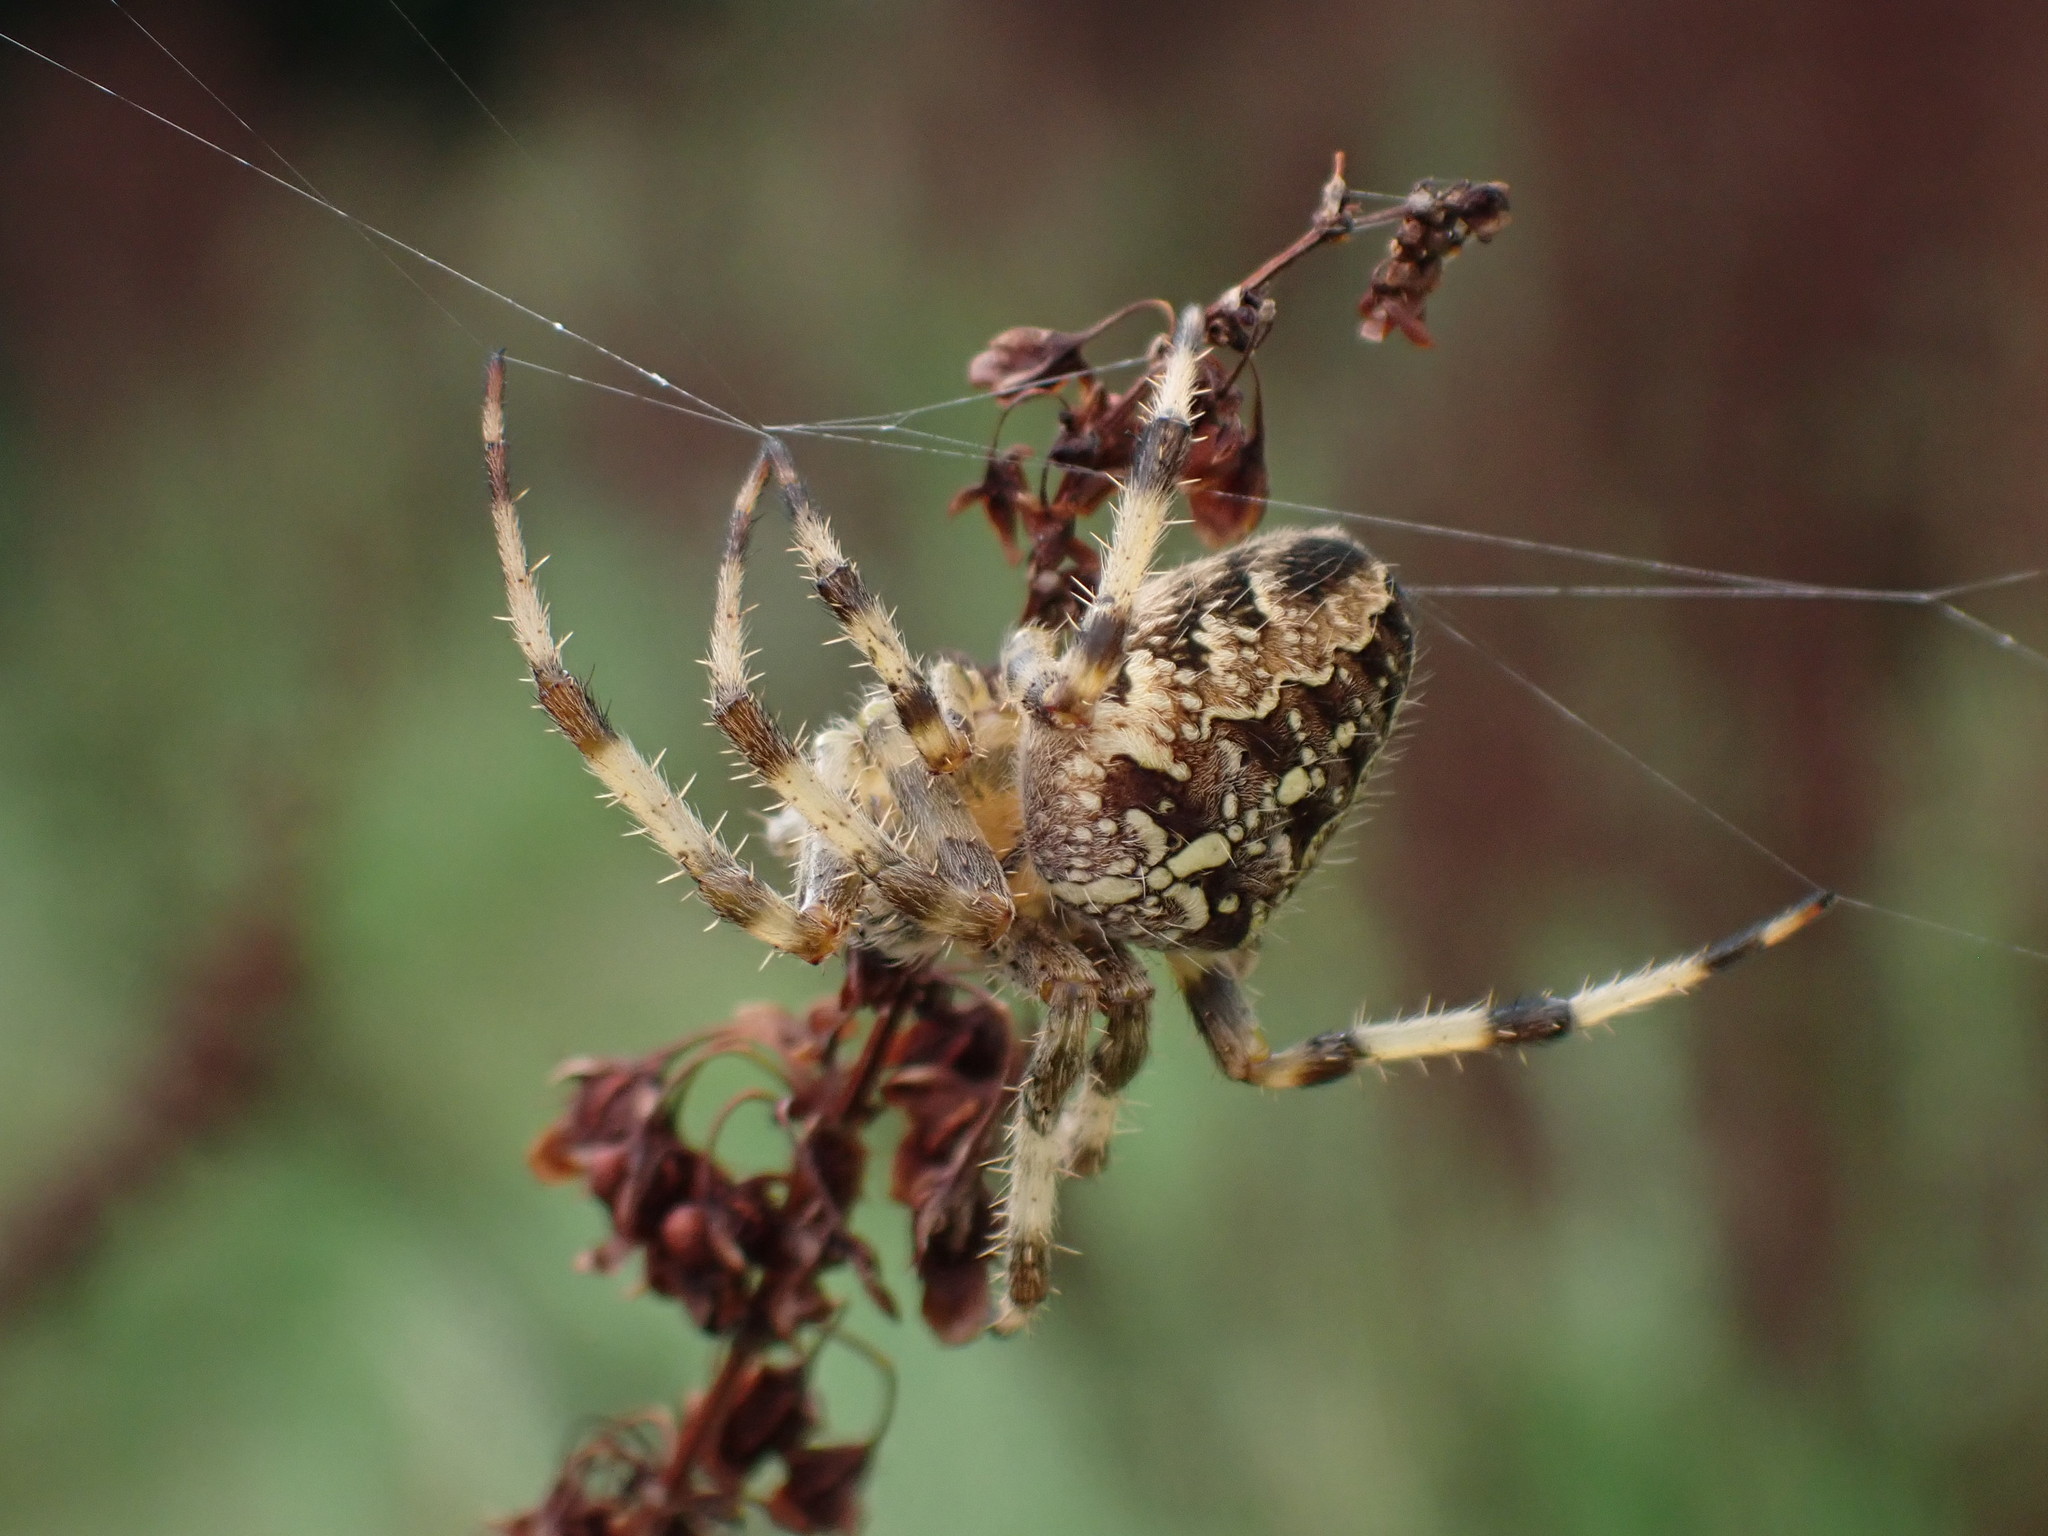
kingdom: Animalia
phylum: Arthropoda
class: Arachnida
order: Araneae
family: Araneidae
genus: Araneus
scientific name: Araneus diadematus
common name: Cross orbweaver
